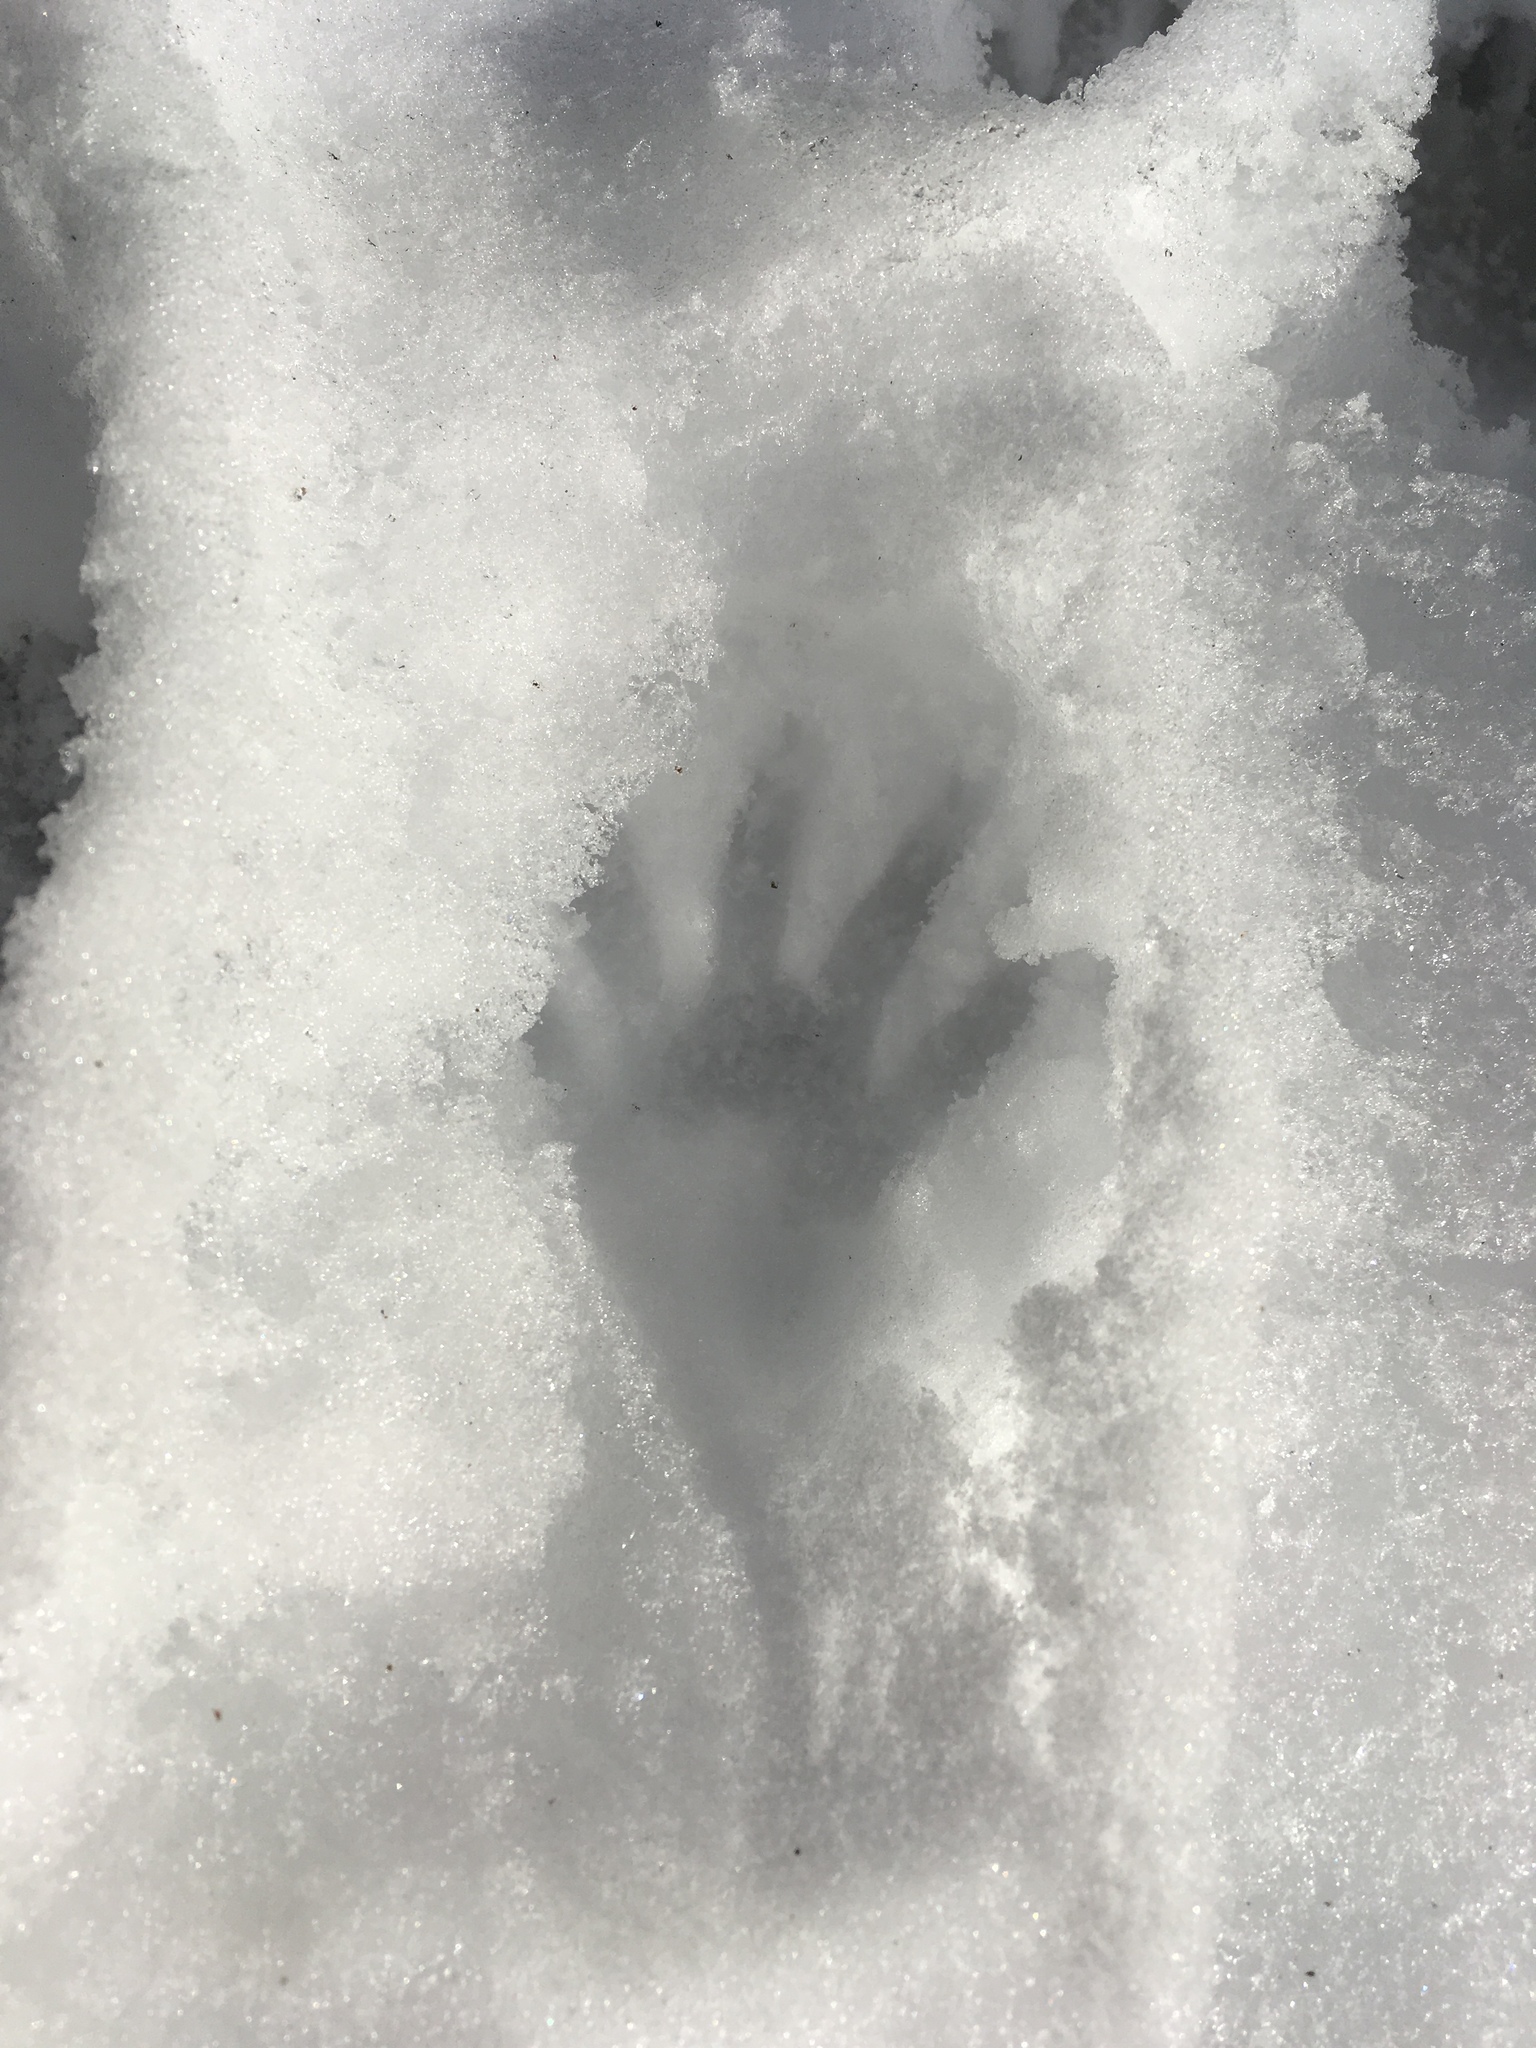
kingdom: Animalia
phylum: Chordata
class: Mammalia
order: Carnivora
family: Procyonidae
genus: Procyon
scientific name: Procyon lotor
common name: Raccoon
